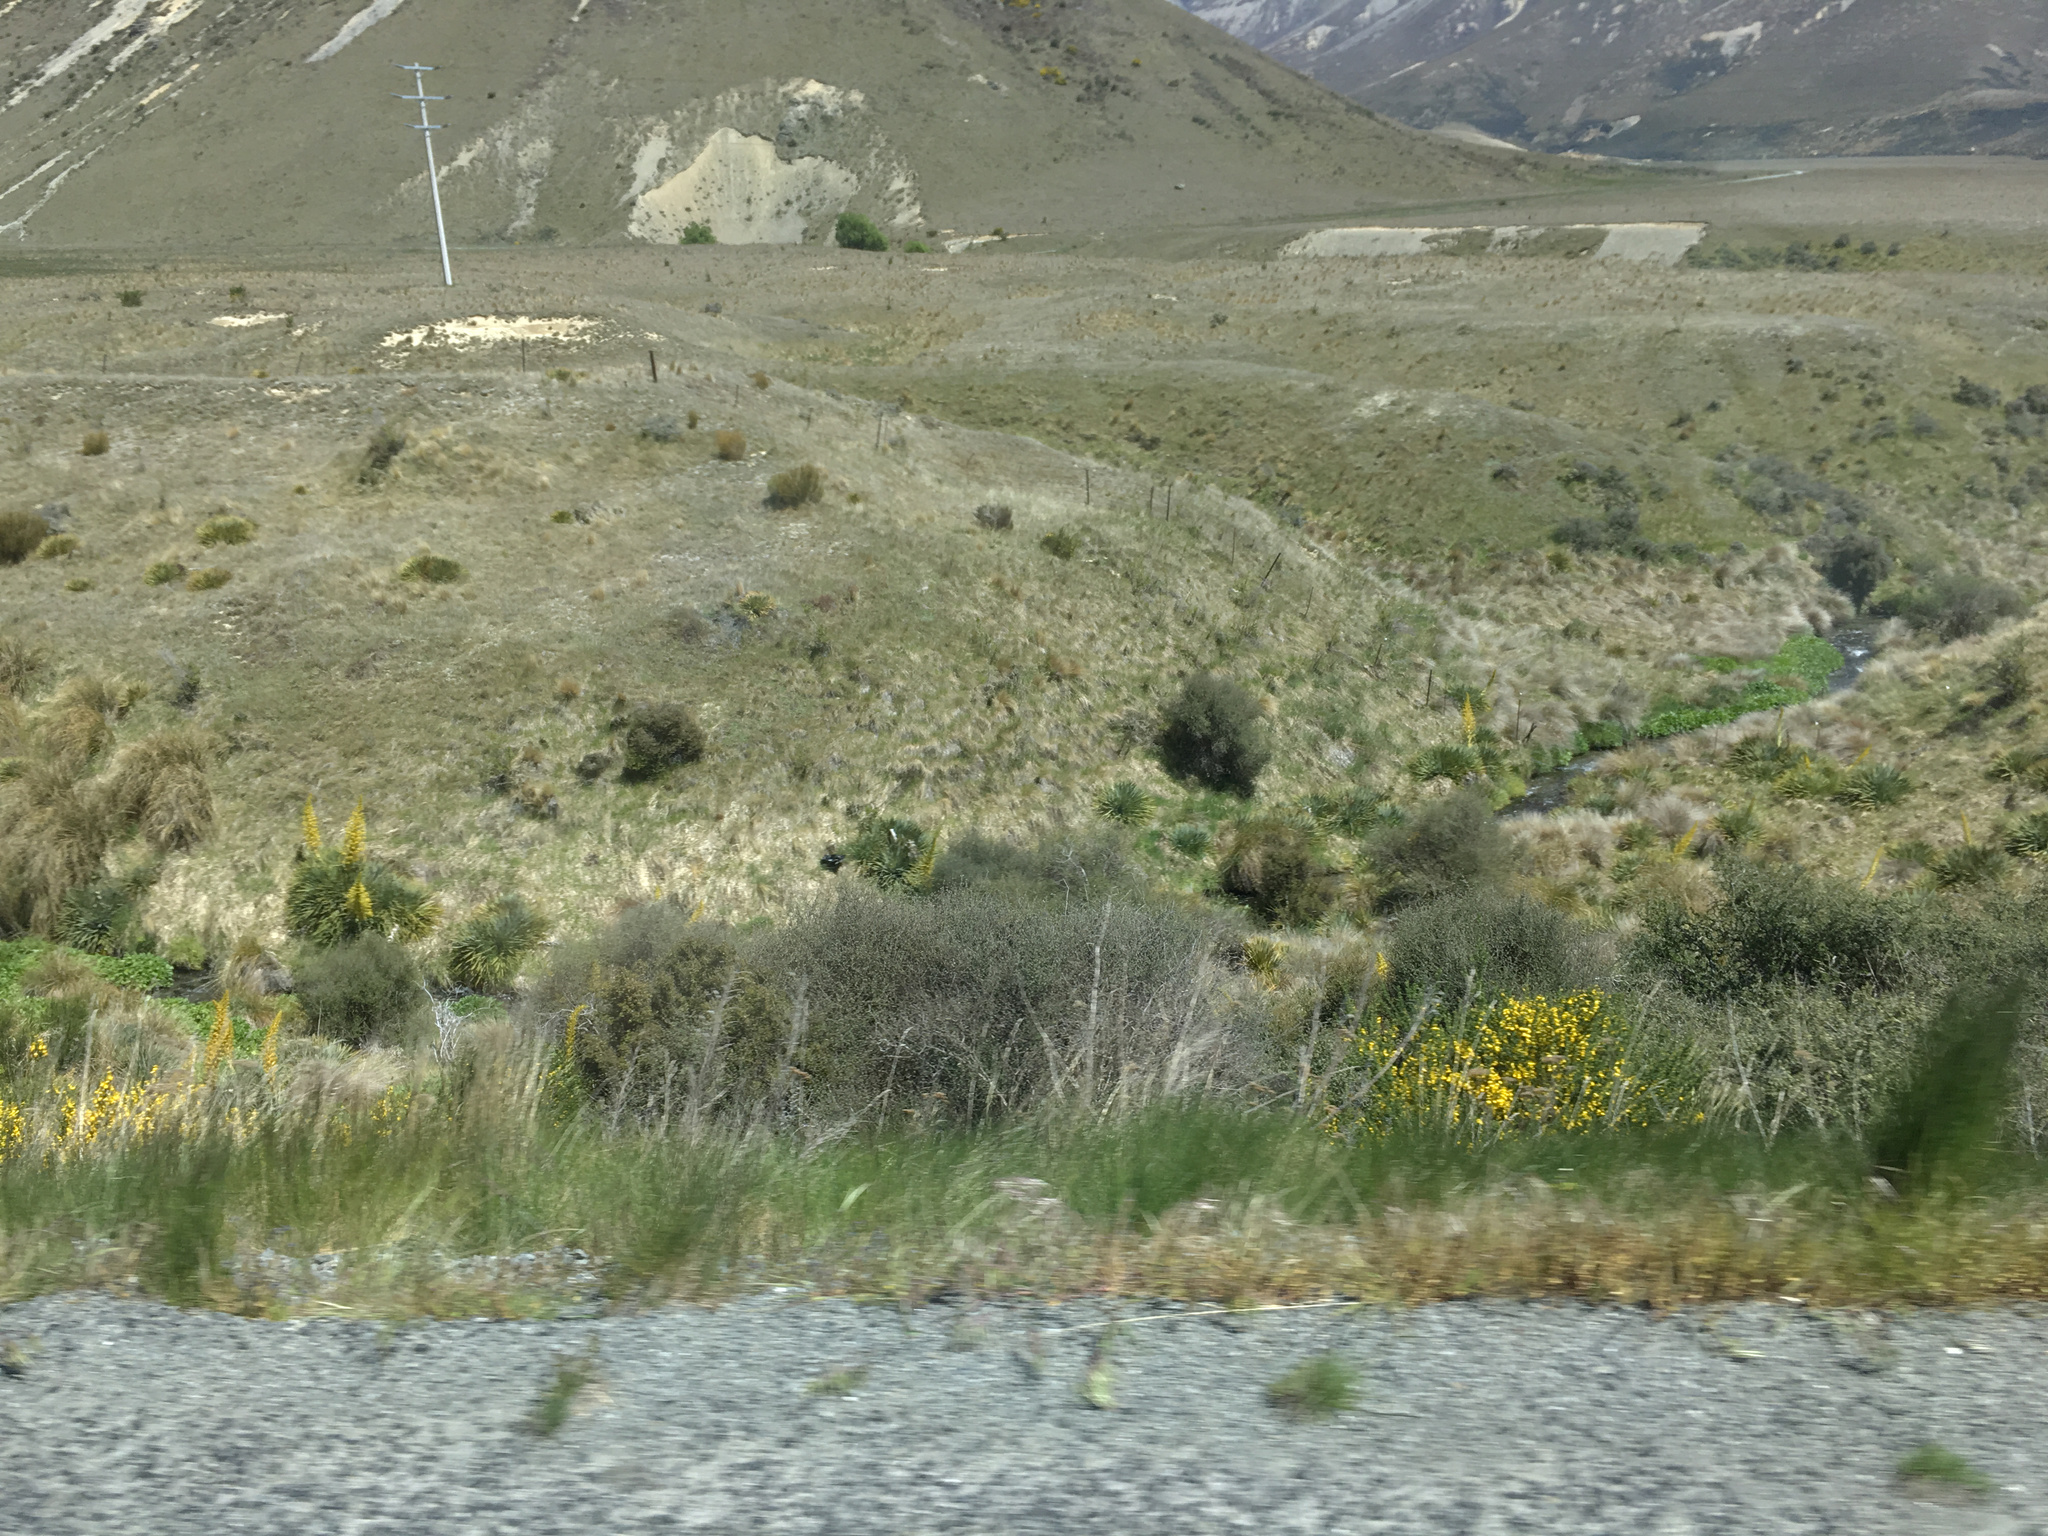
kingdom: Plantae
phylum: Tracheophyta
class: Magnoliopsida
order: Fabales
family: Fabaceae
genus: Cytisus
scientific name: Cytisus scoparius
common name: Scotch broom
